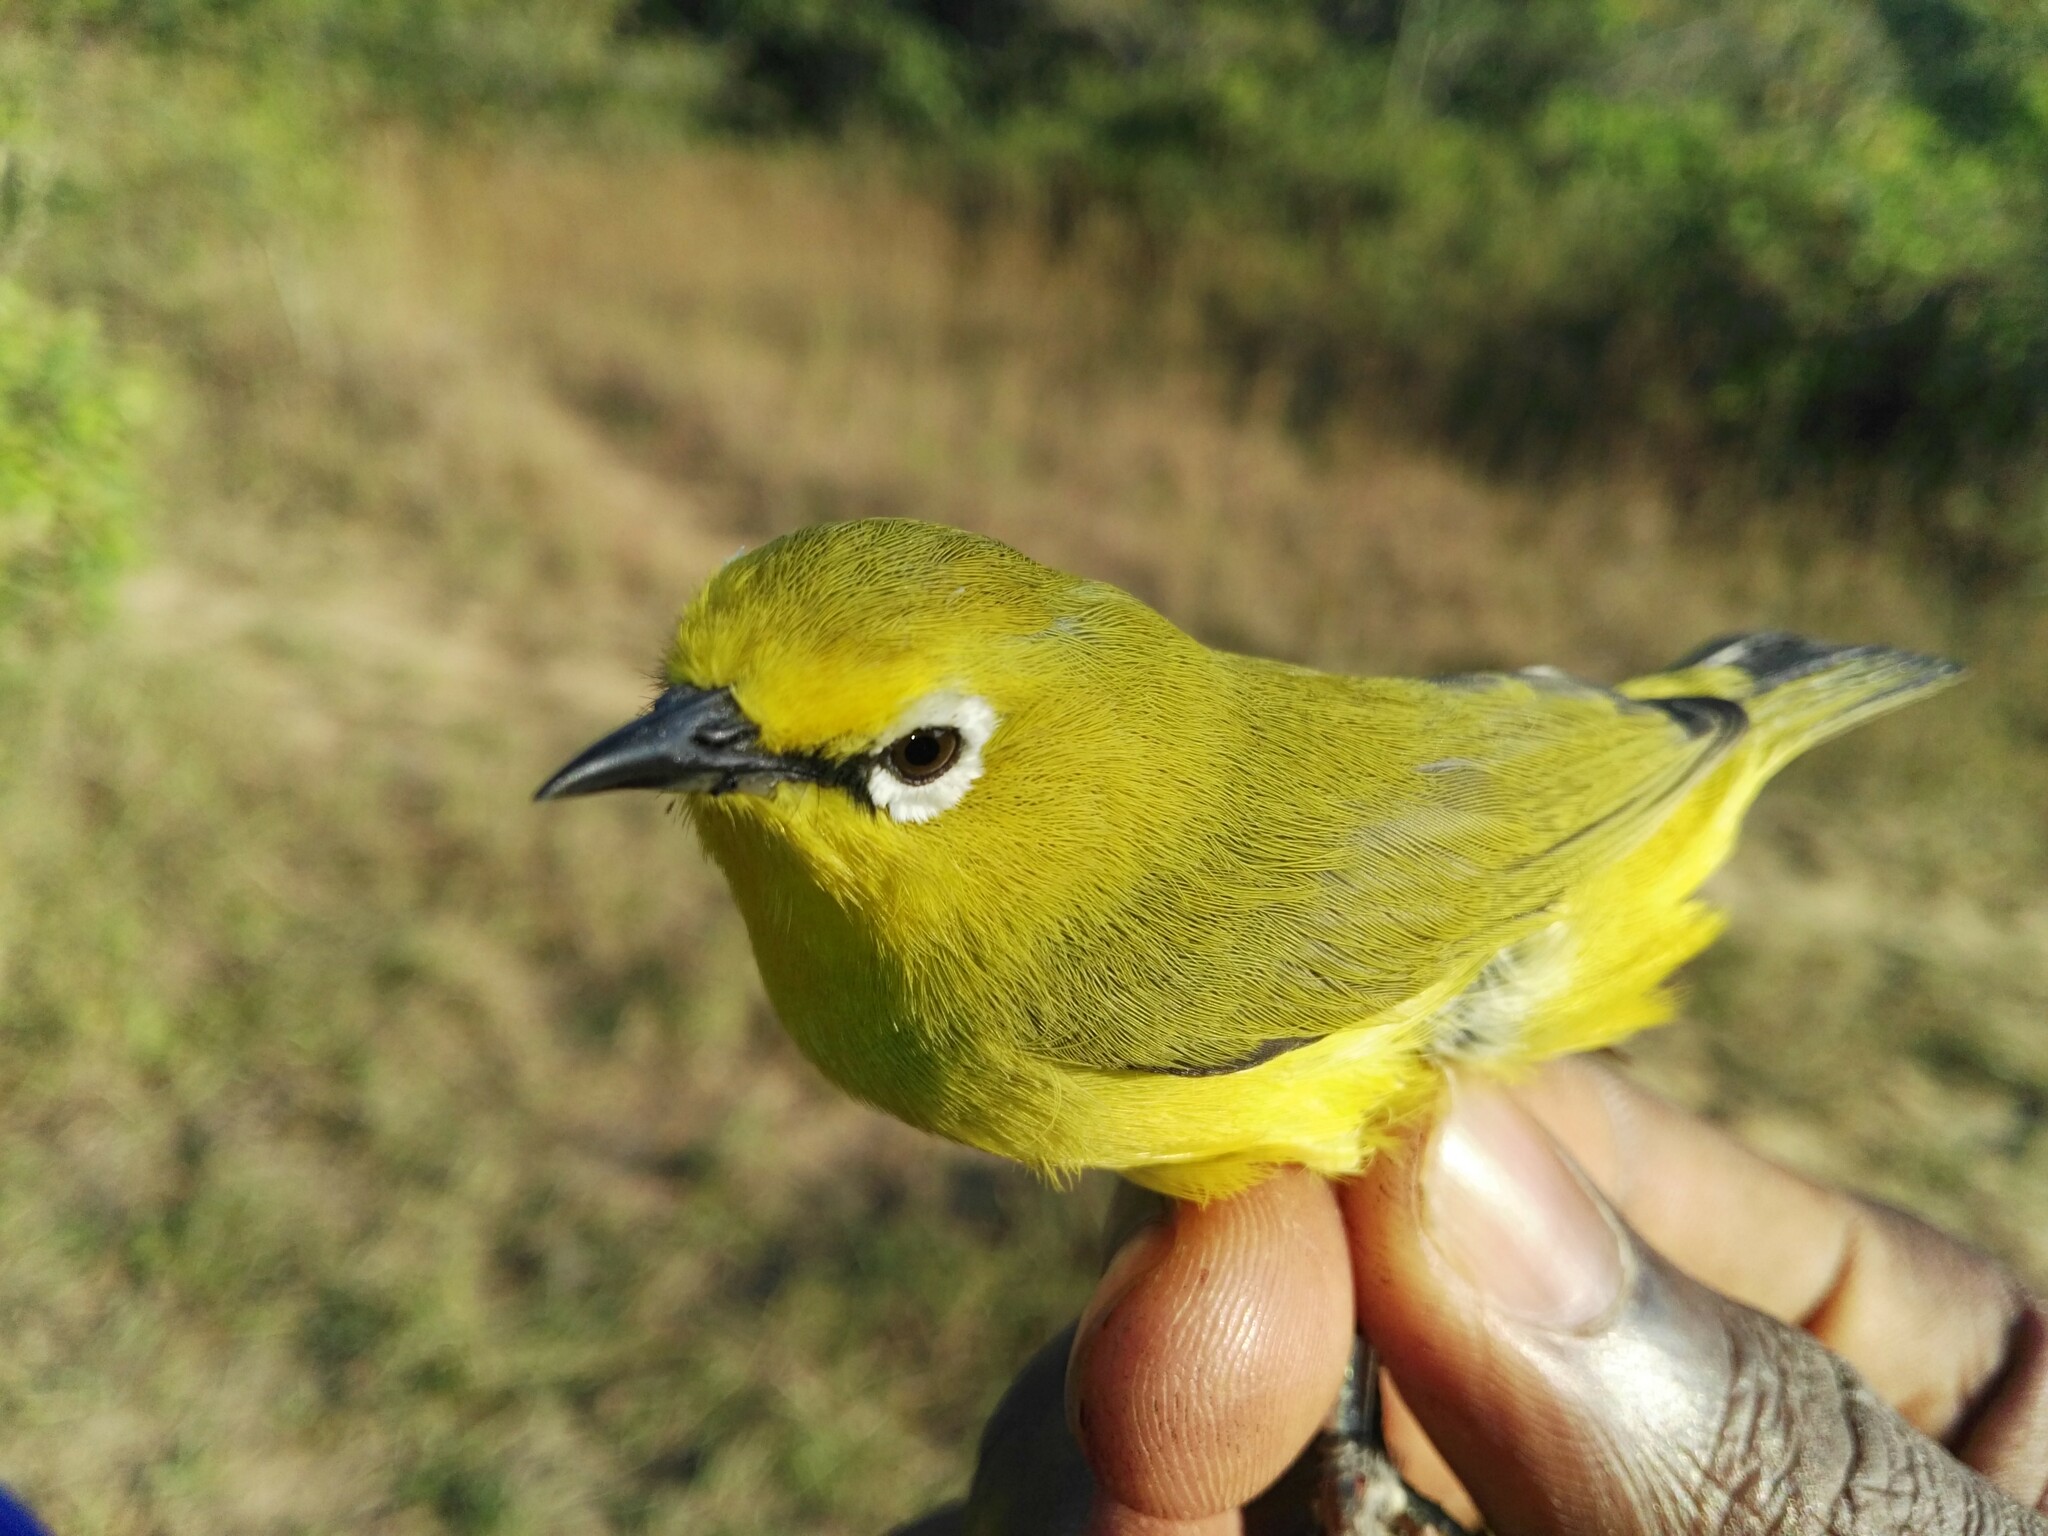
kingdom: Animalia
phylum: Chordata
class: Aves
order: Passeriformes
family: Zosteropidae
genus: Zosterops
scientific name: Zosterops senegalensis
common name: African yellow white-eye
